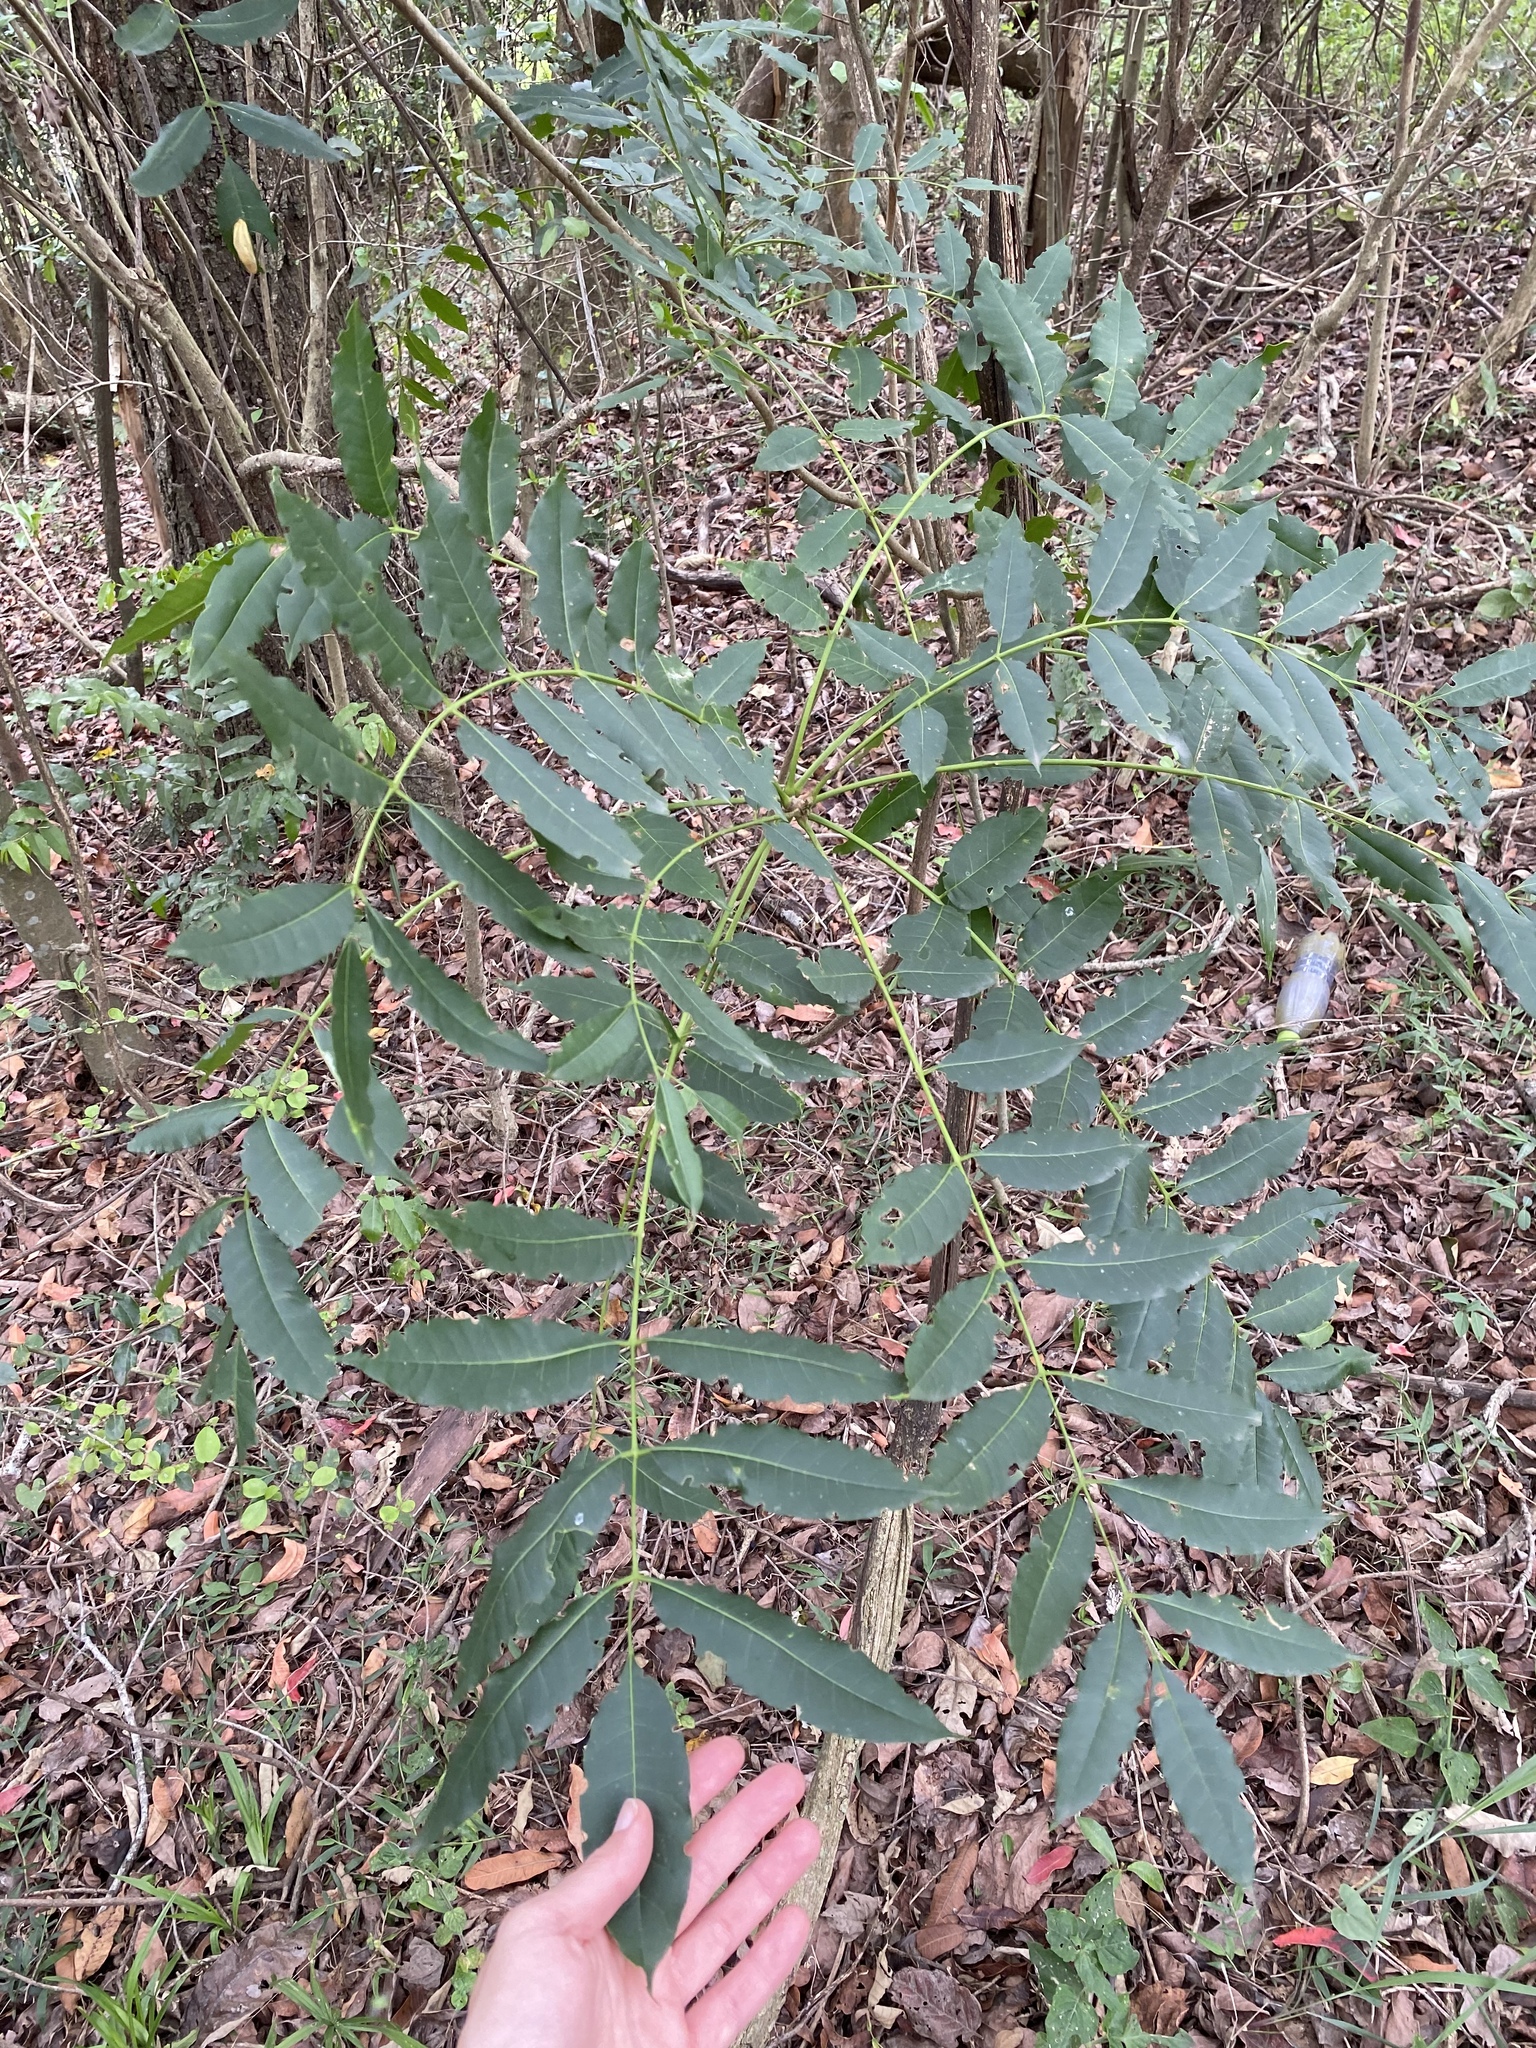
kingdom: Plantae
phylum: Tracheophyta
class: Magnoliopsida
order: Sapindales
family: Meliaceae
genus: Ekebergia
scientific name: Ekebergia capensis
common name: Cape-ash
